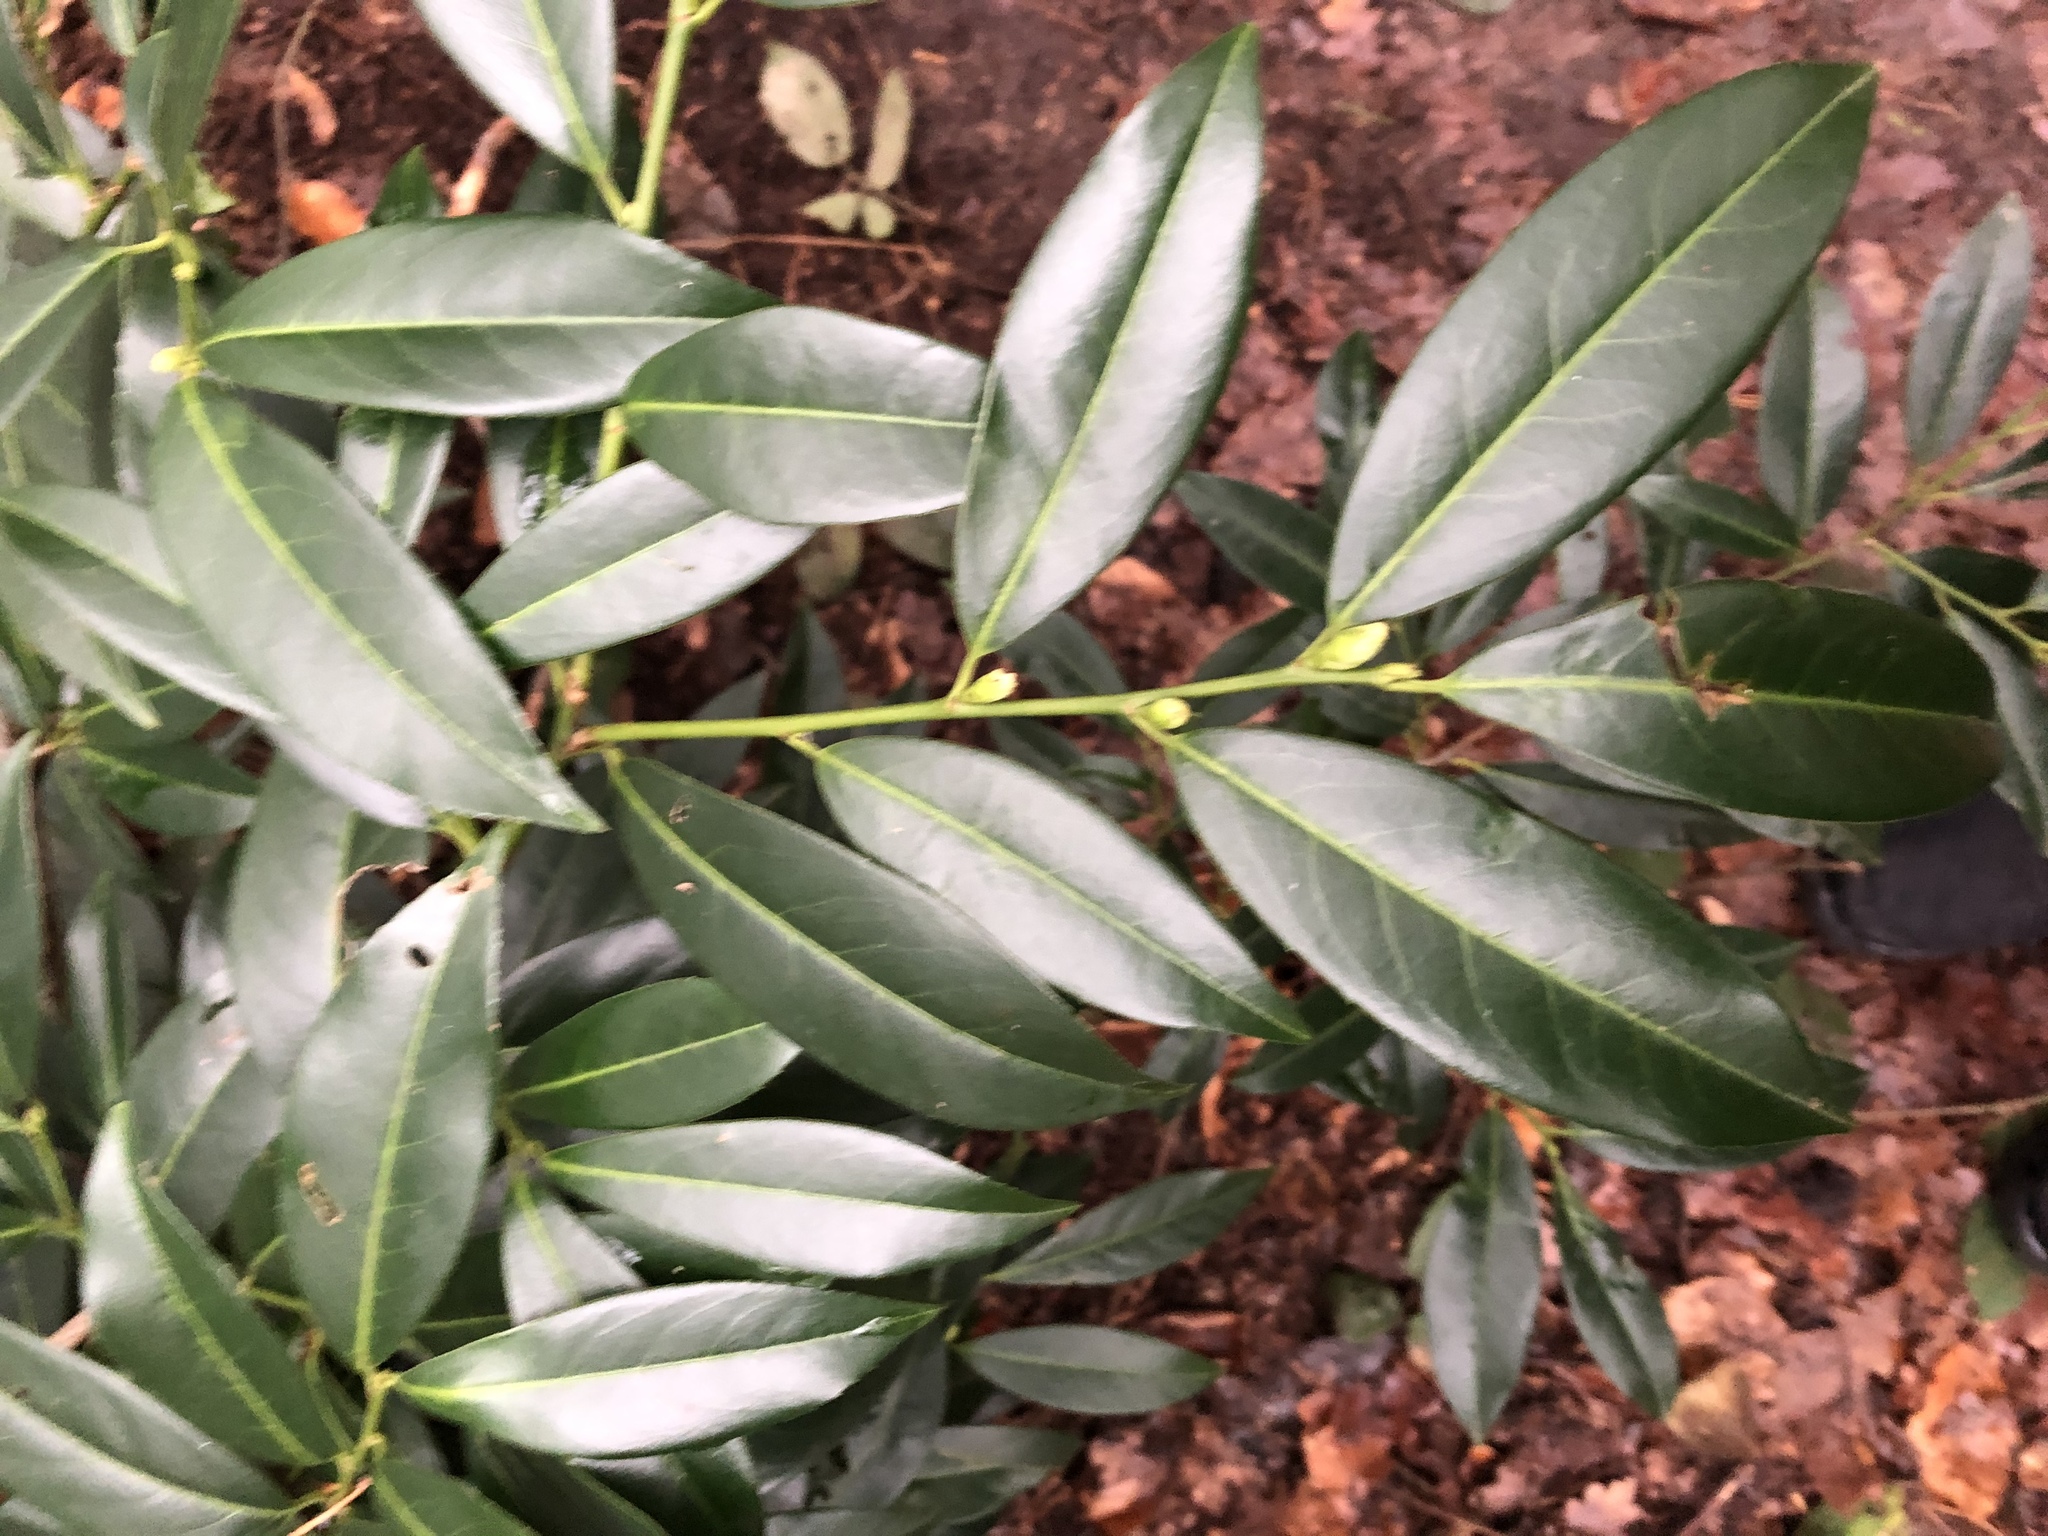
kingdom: Plantae
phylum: Tracheophyta
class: Magnoliopsida
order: Rosales
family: Rosaceae
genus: Prunus
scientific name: Prunus laurocerasus
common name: Cherry laurel
